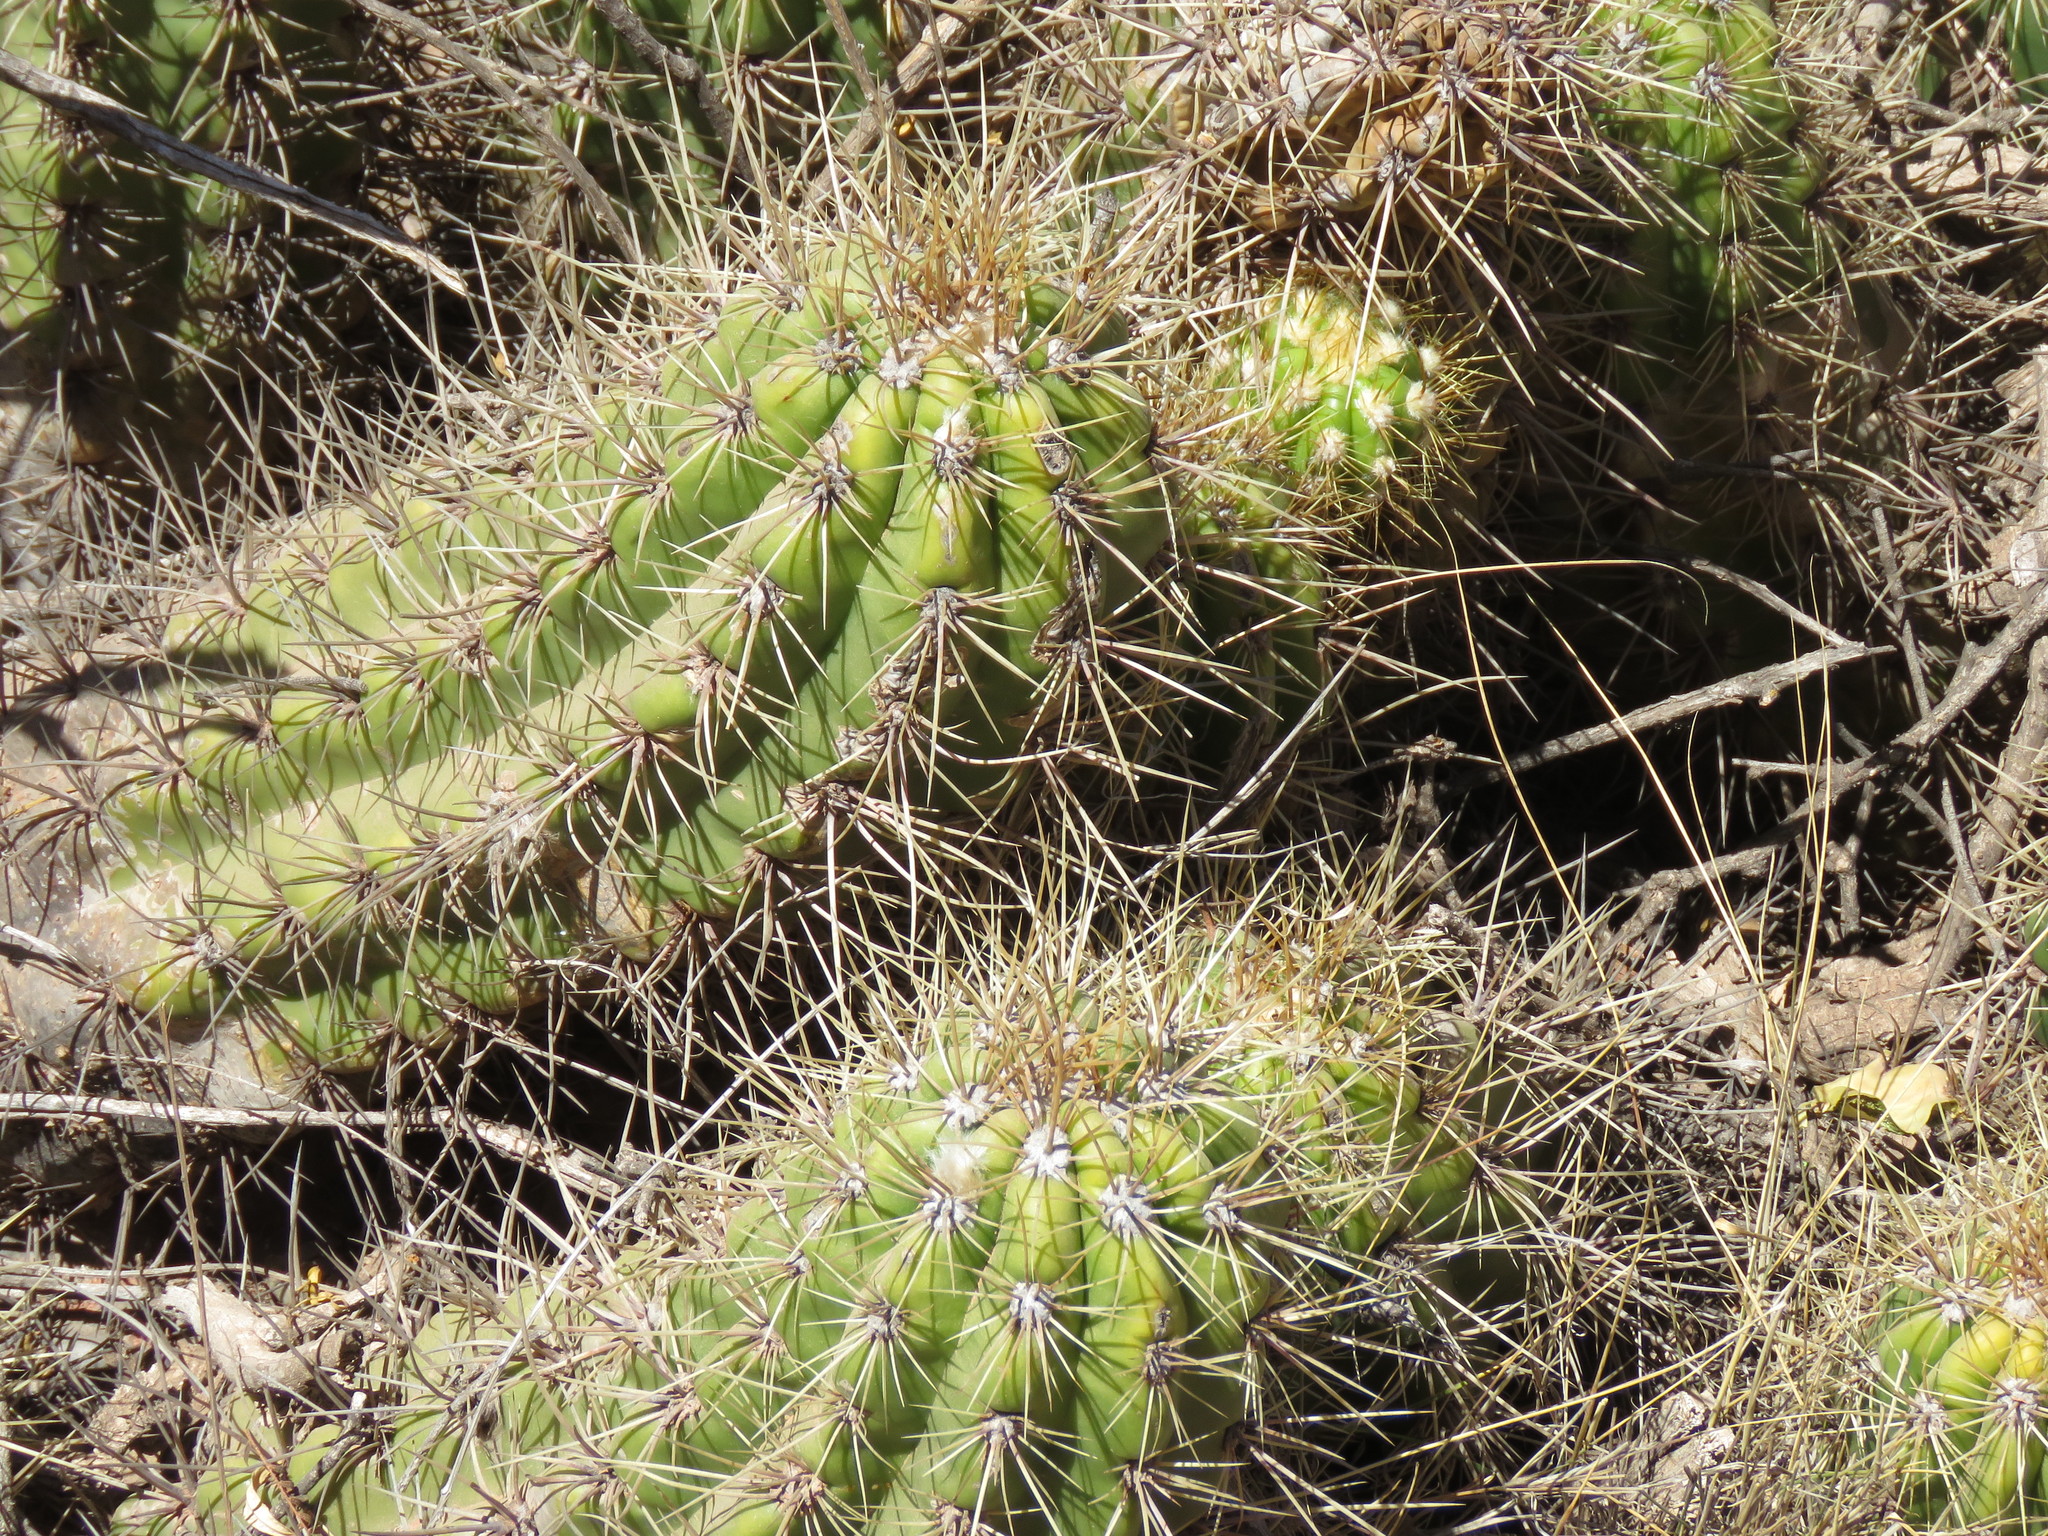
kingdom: Plantae
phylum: Tracheophyta
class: Magnoliopsida
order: Caryophyllales
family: Cactaceae
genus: Soehrensia
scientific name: Soehrensia candicans
